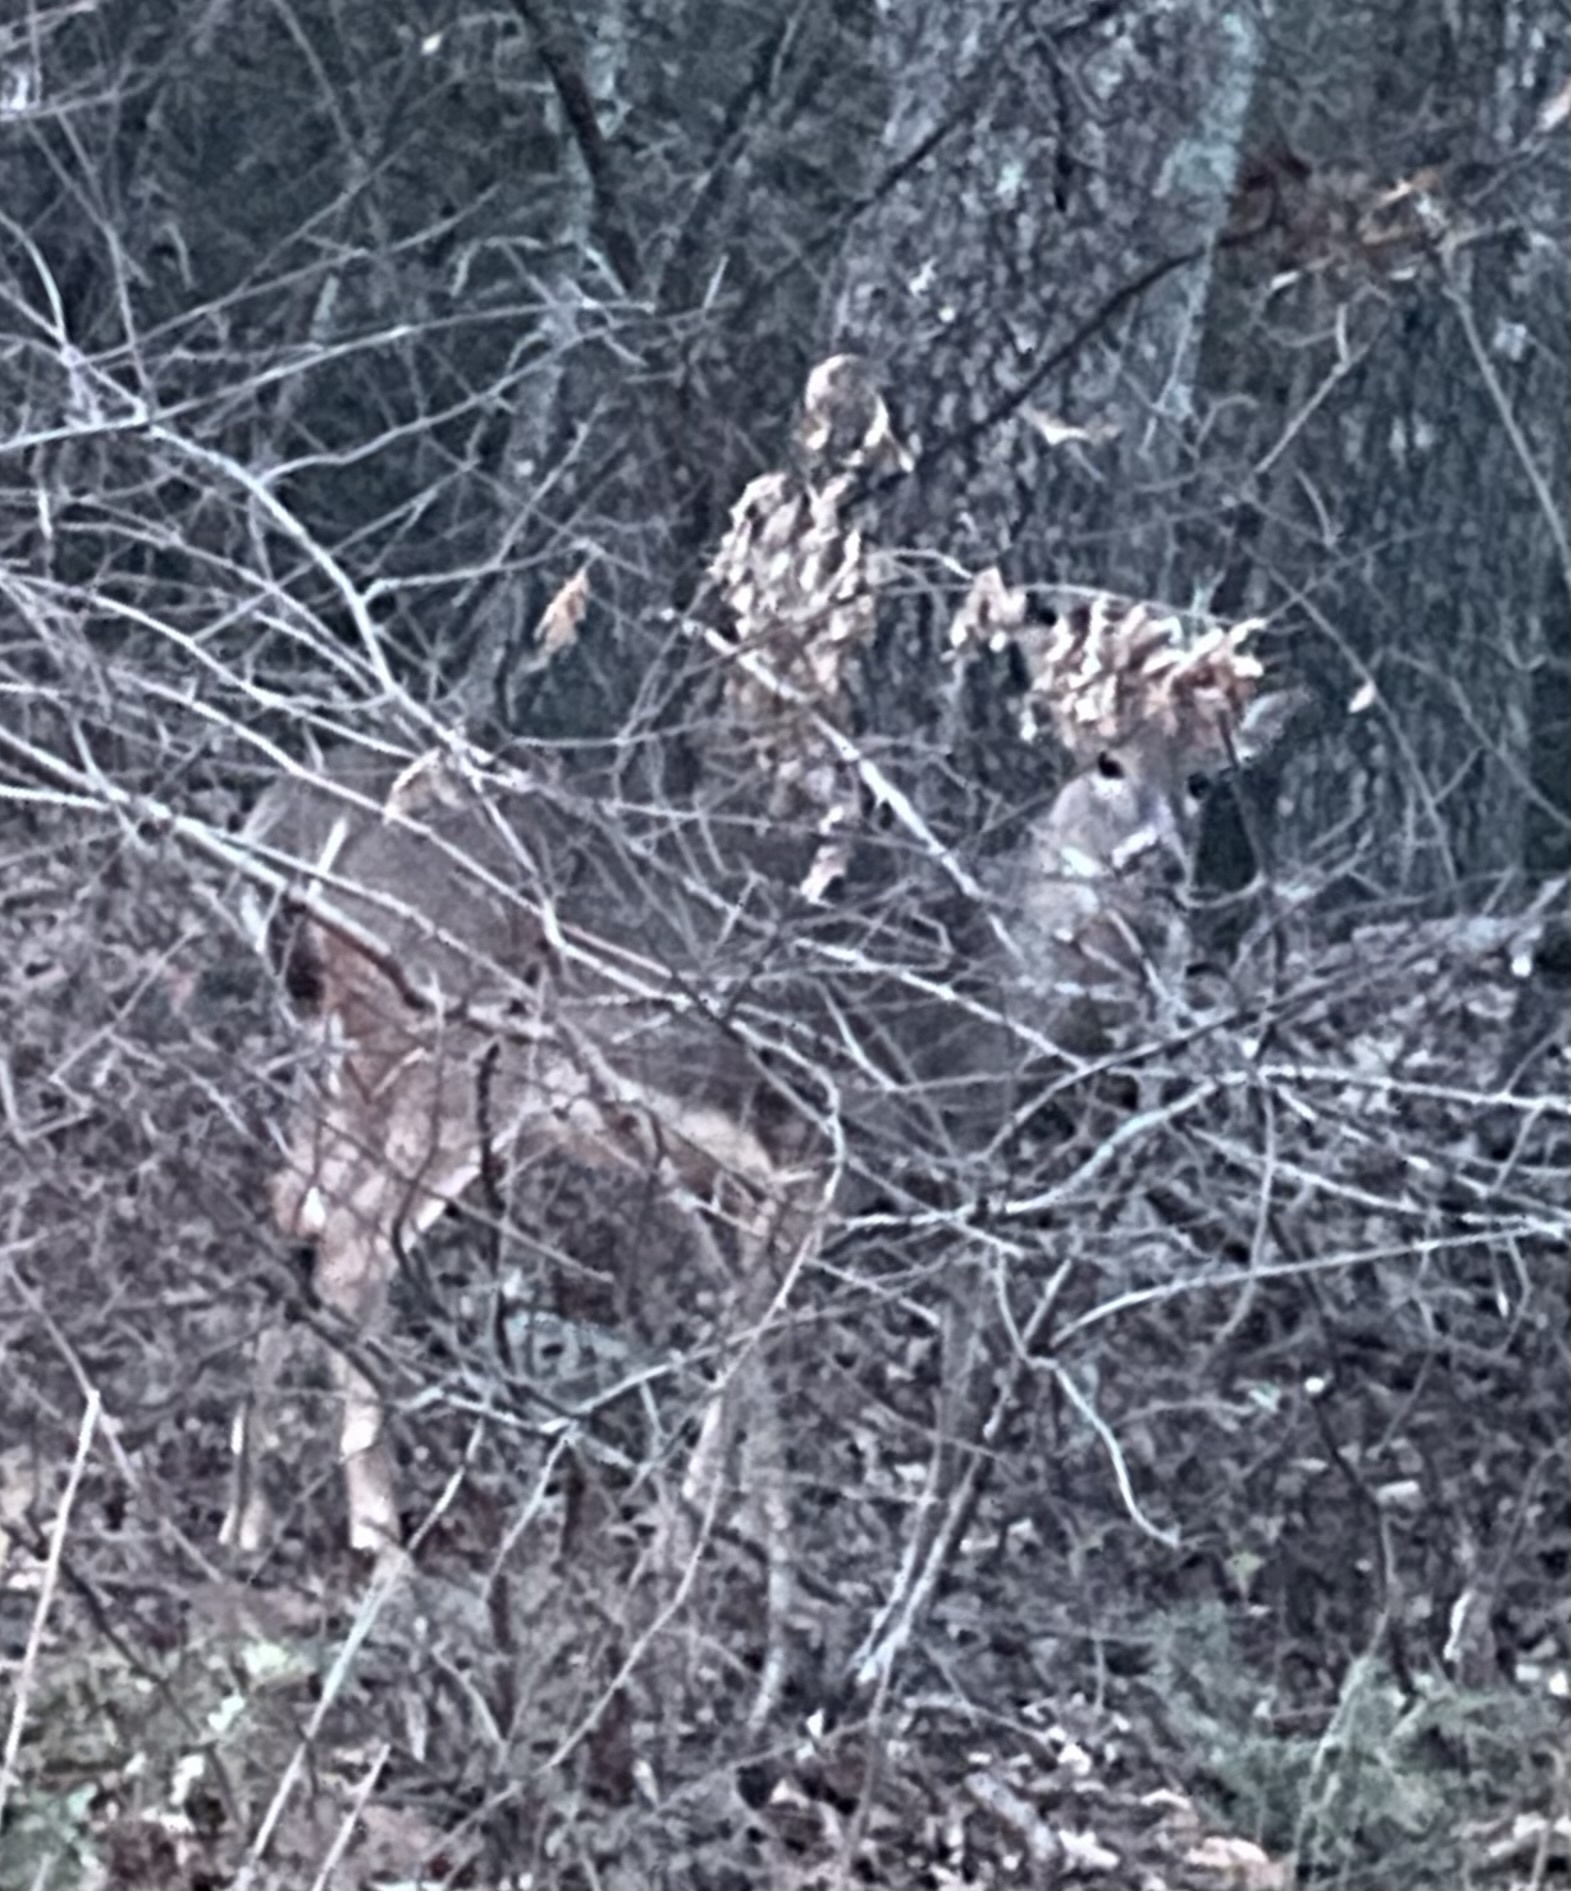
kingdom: Animalia
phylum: Chordata
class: Mammalia
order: Artiodactyla
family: Cervidae
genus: Odocoileus
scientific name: Odocoileus virginianus
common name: White-tailed deer
